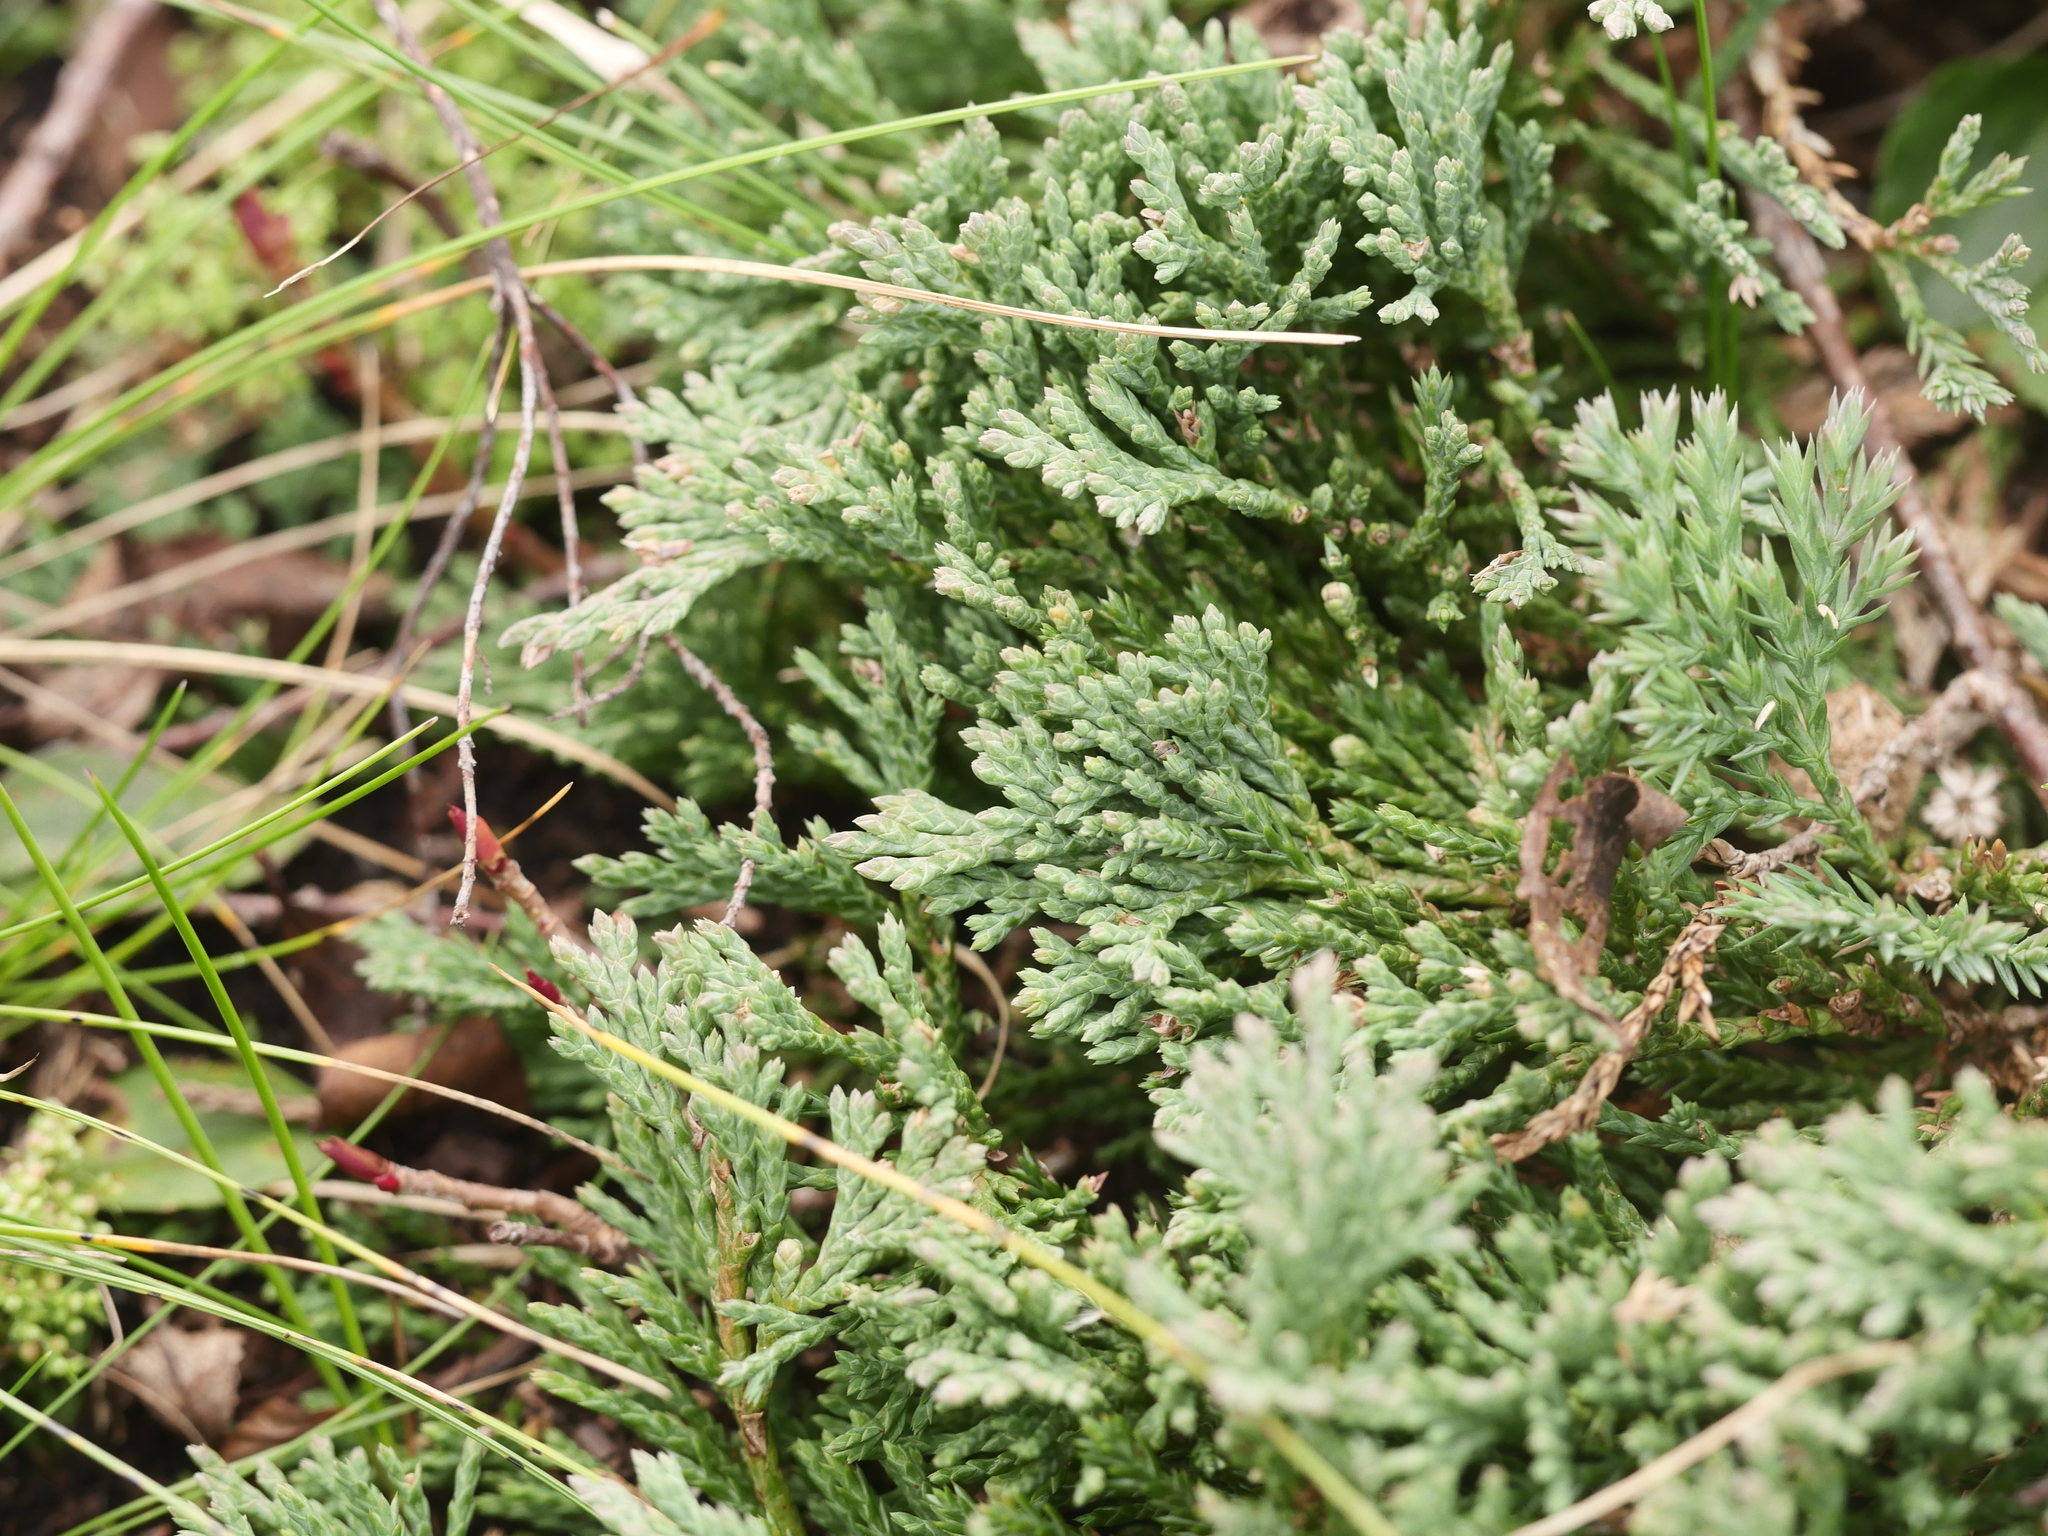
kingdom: Plantae
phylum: Tracheophyta
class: Pinopsida
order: Pinales
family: Cupressaceae
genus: Juniperus
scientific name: Juniperus horizontalis
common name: Creeping juniper
